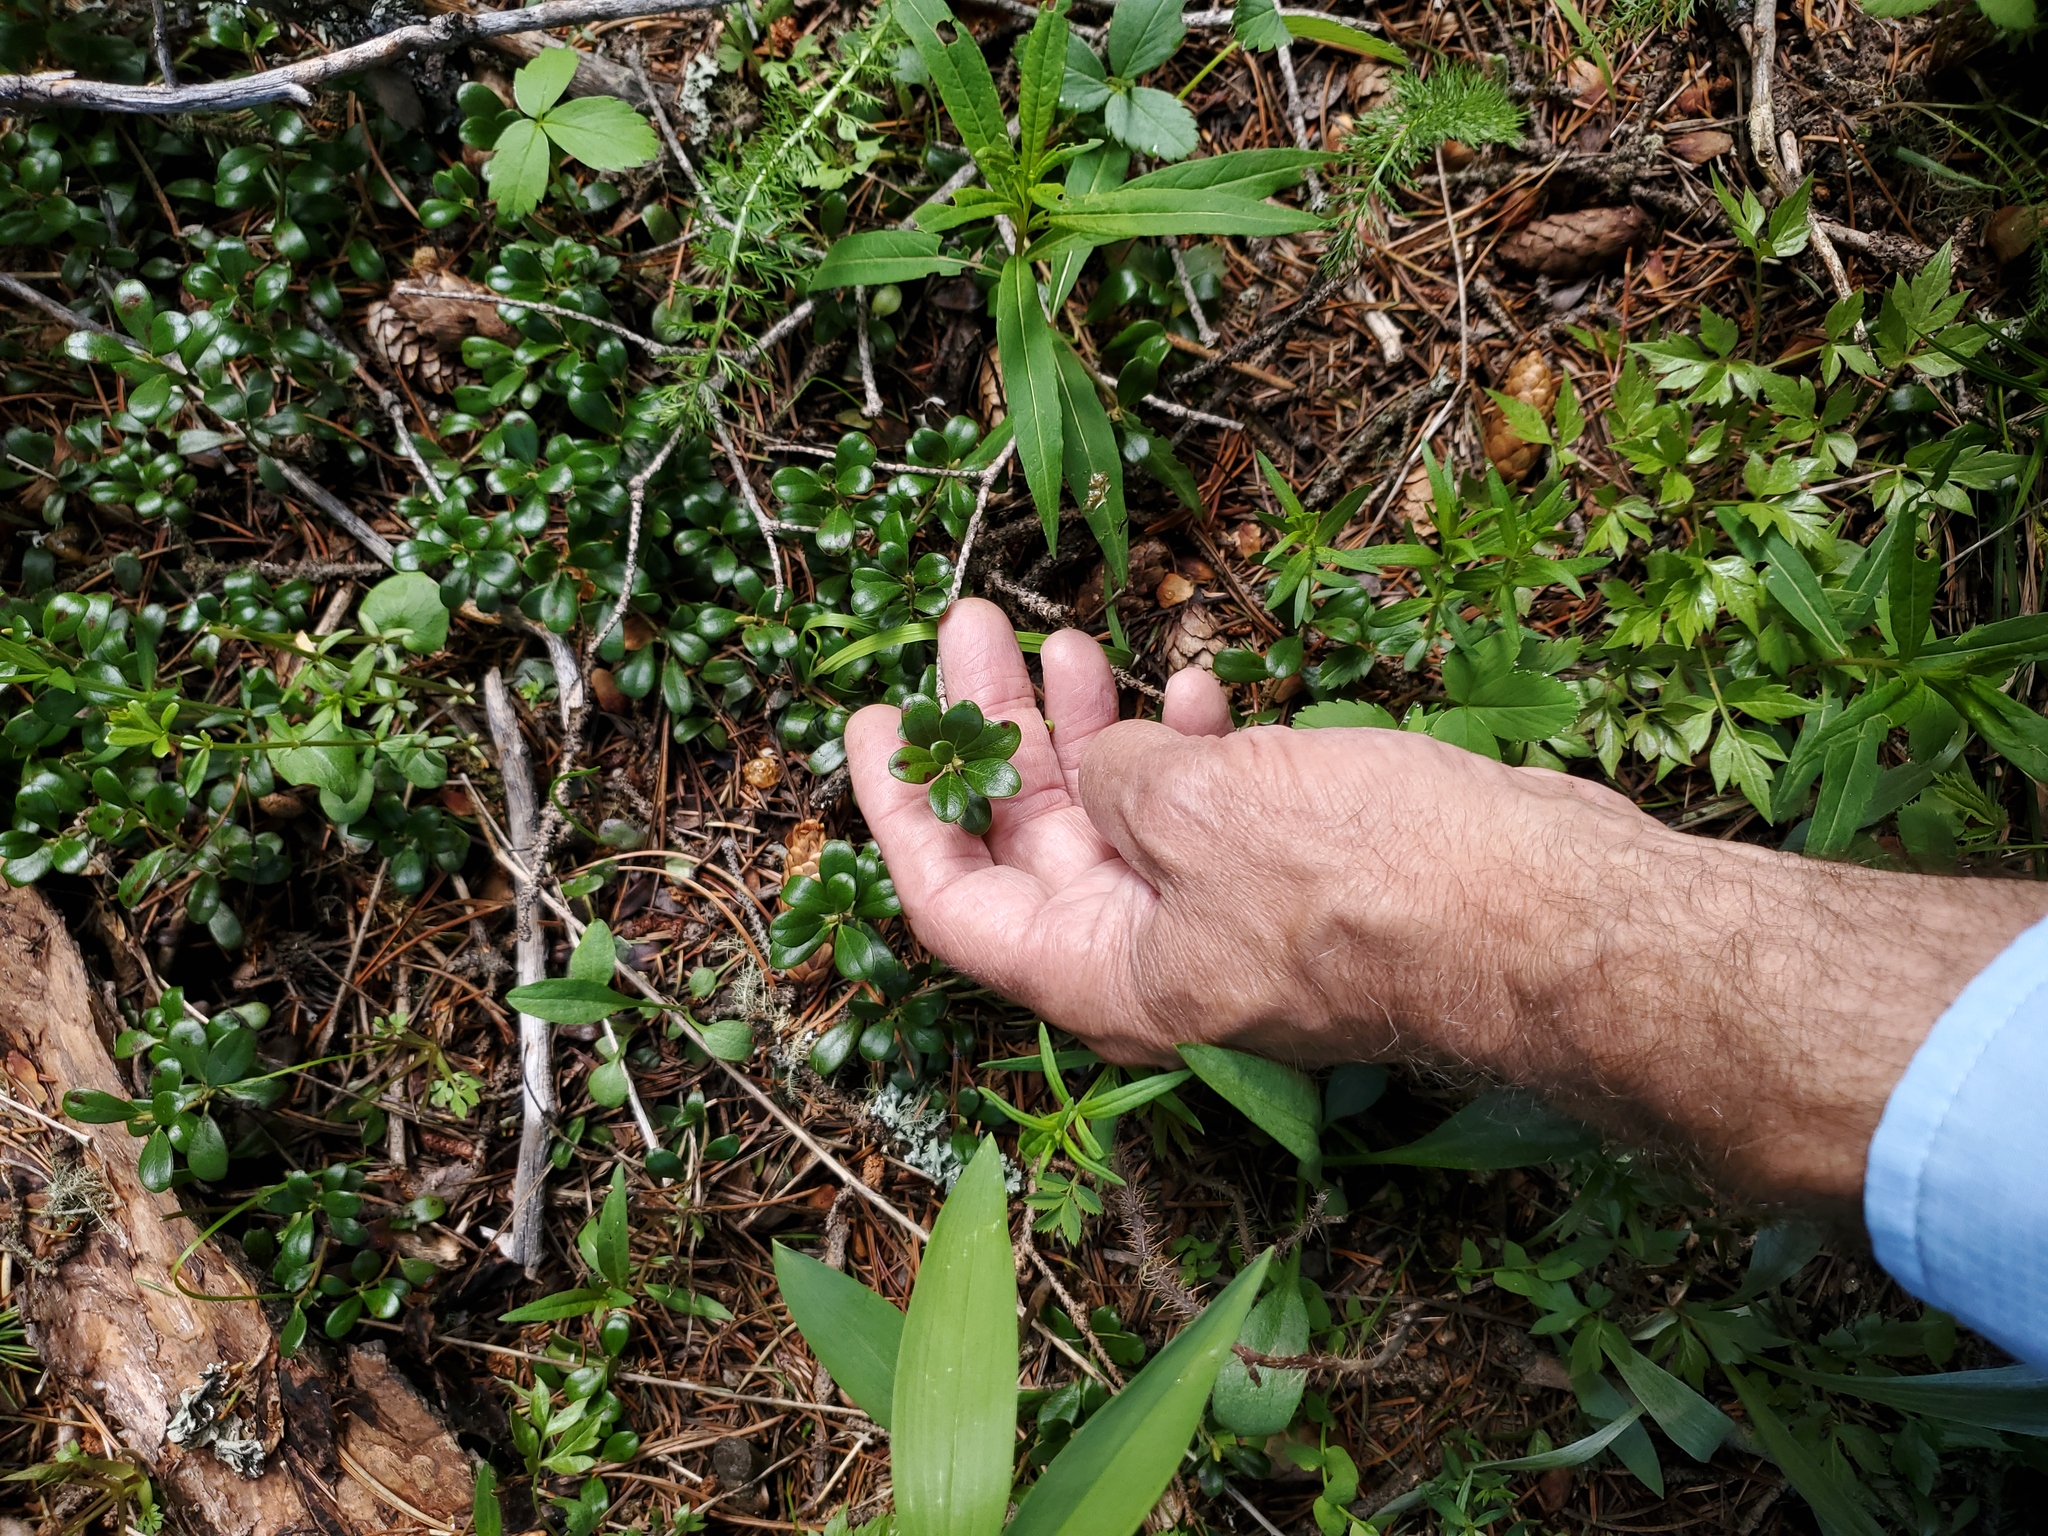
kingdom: Plantae
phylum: Tracheophyta
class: Magnoliopsida
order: Ericales
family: Ericaceae
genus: Arctostaphylos
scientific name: Arctostaphylos uva-ursi
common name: Bearberry
